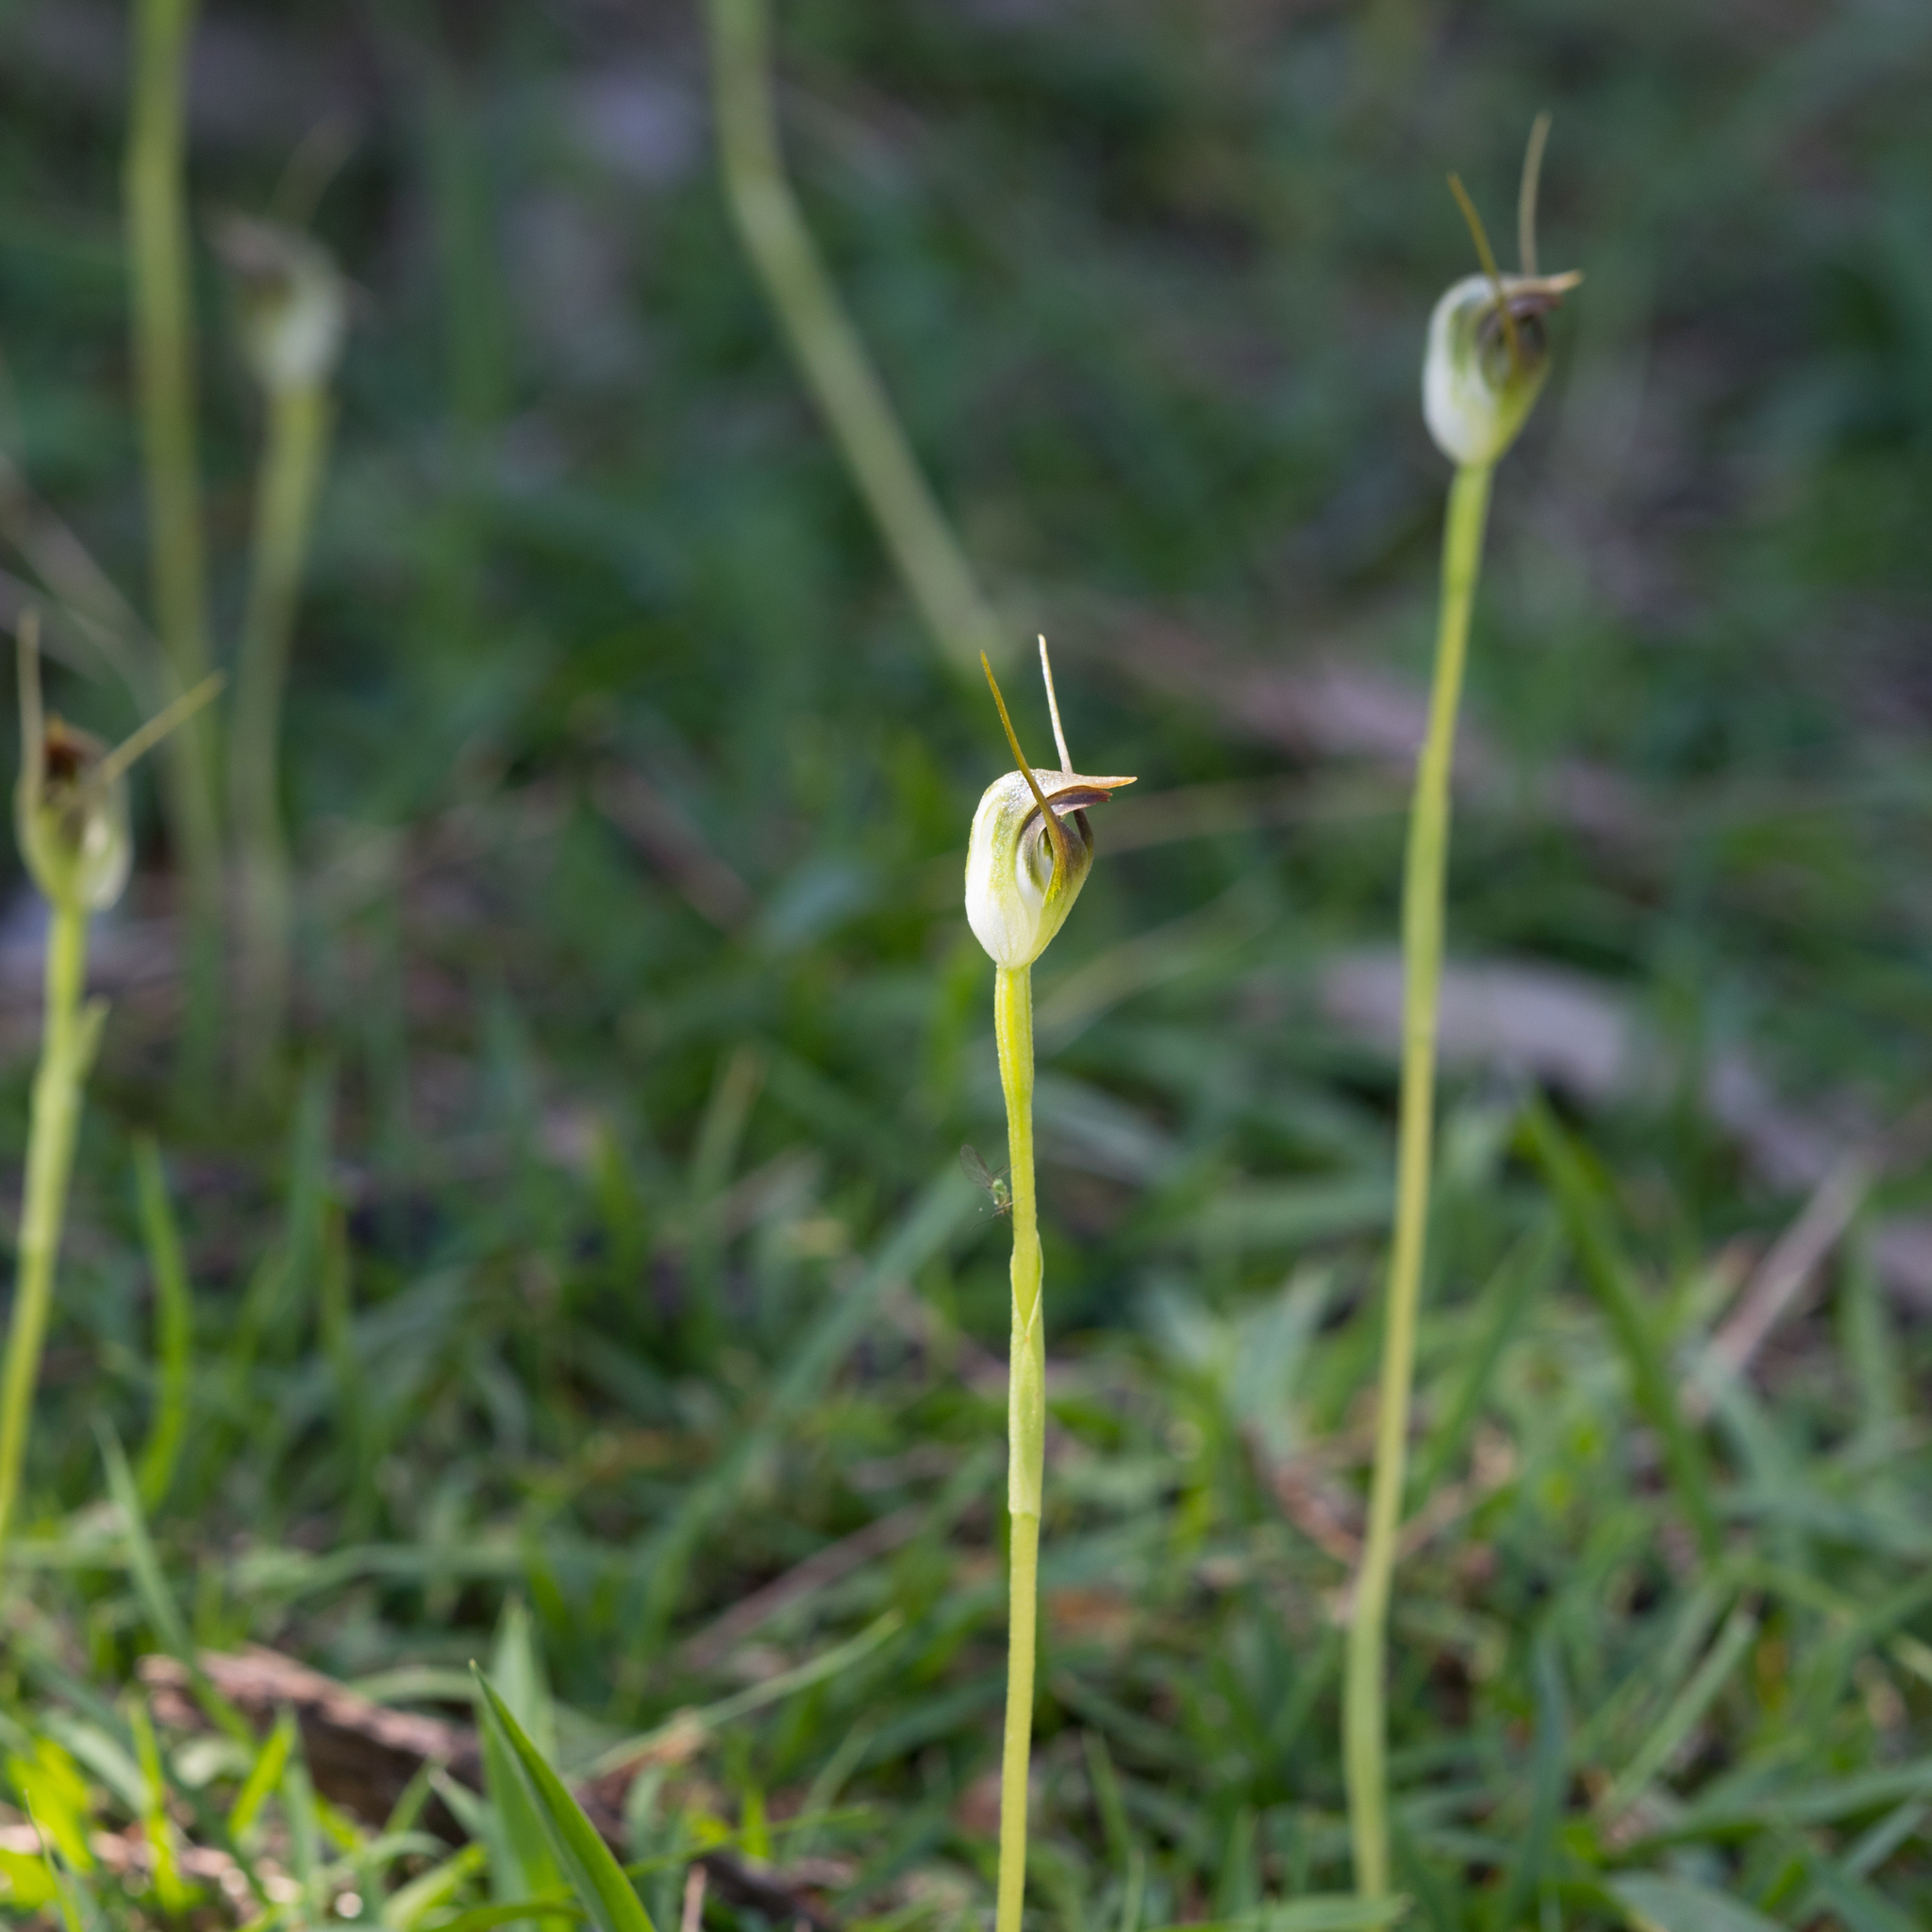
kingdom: Plantae
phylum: Tracheophyta
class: Liliopsida
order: Asparagales
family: Orchidaceae
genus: Pterostylis
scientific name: Pterostylis pedunculata
